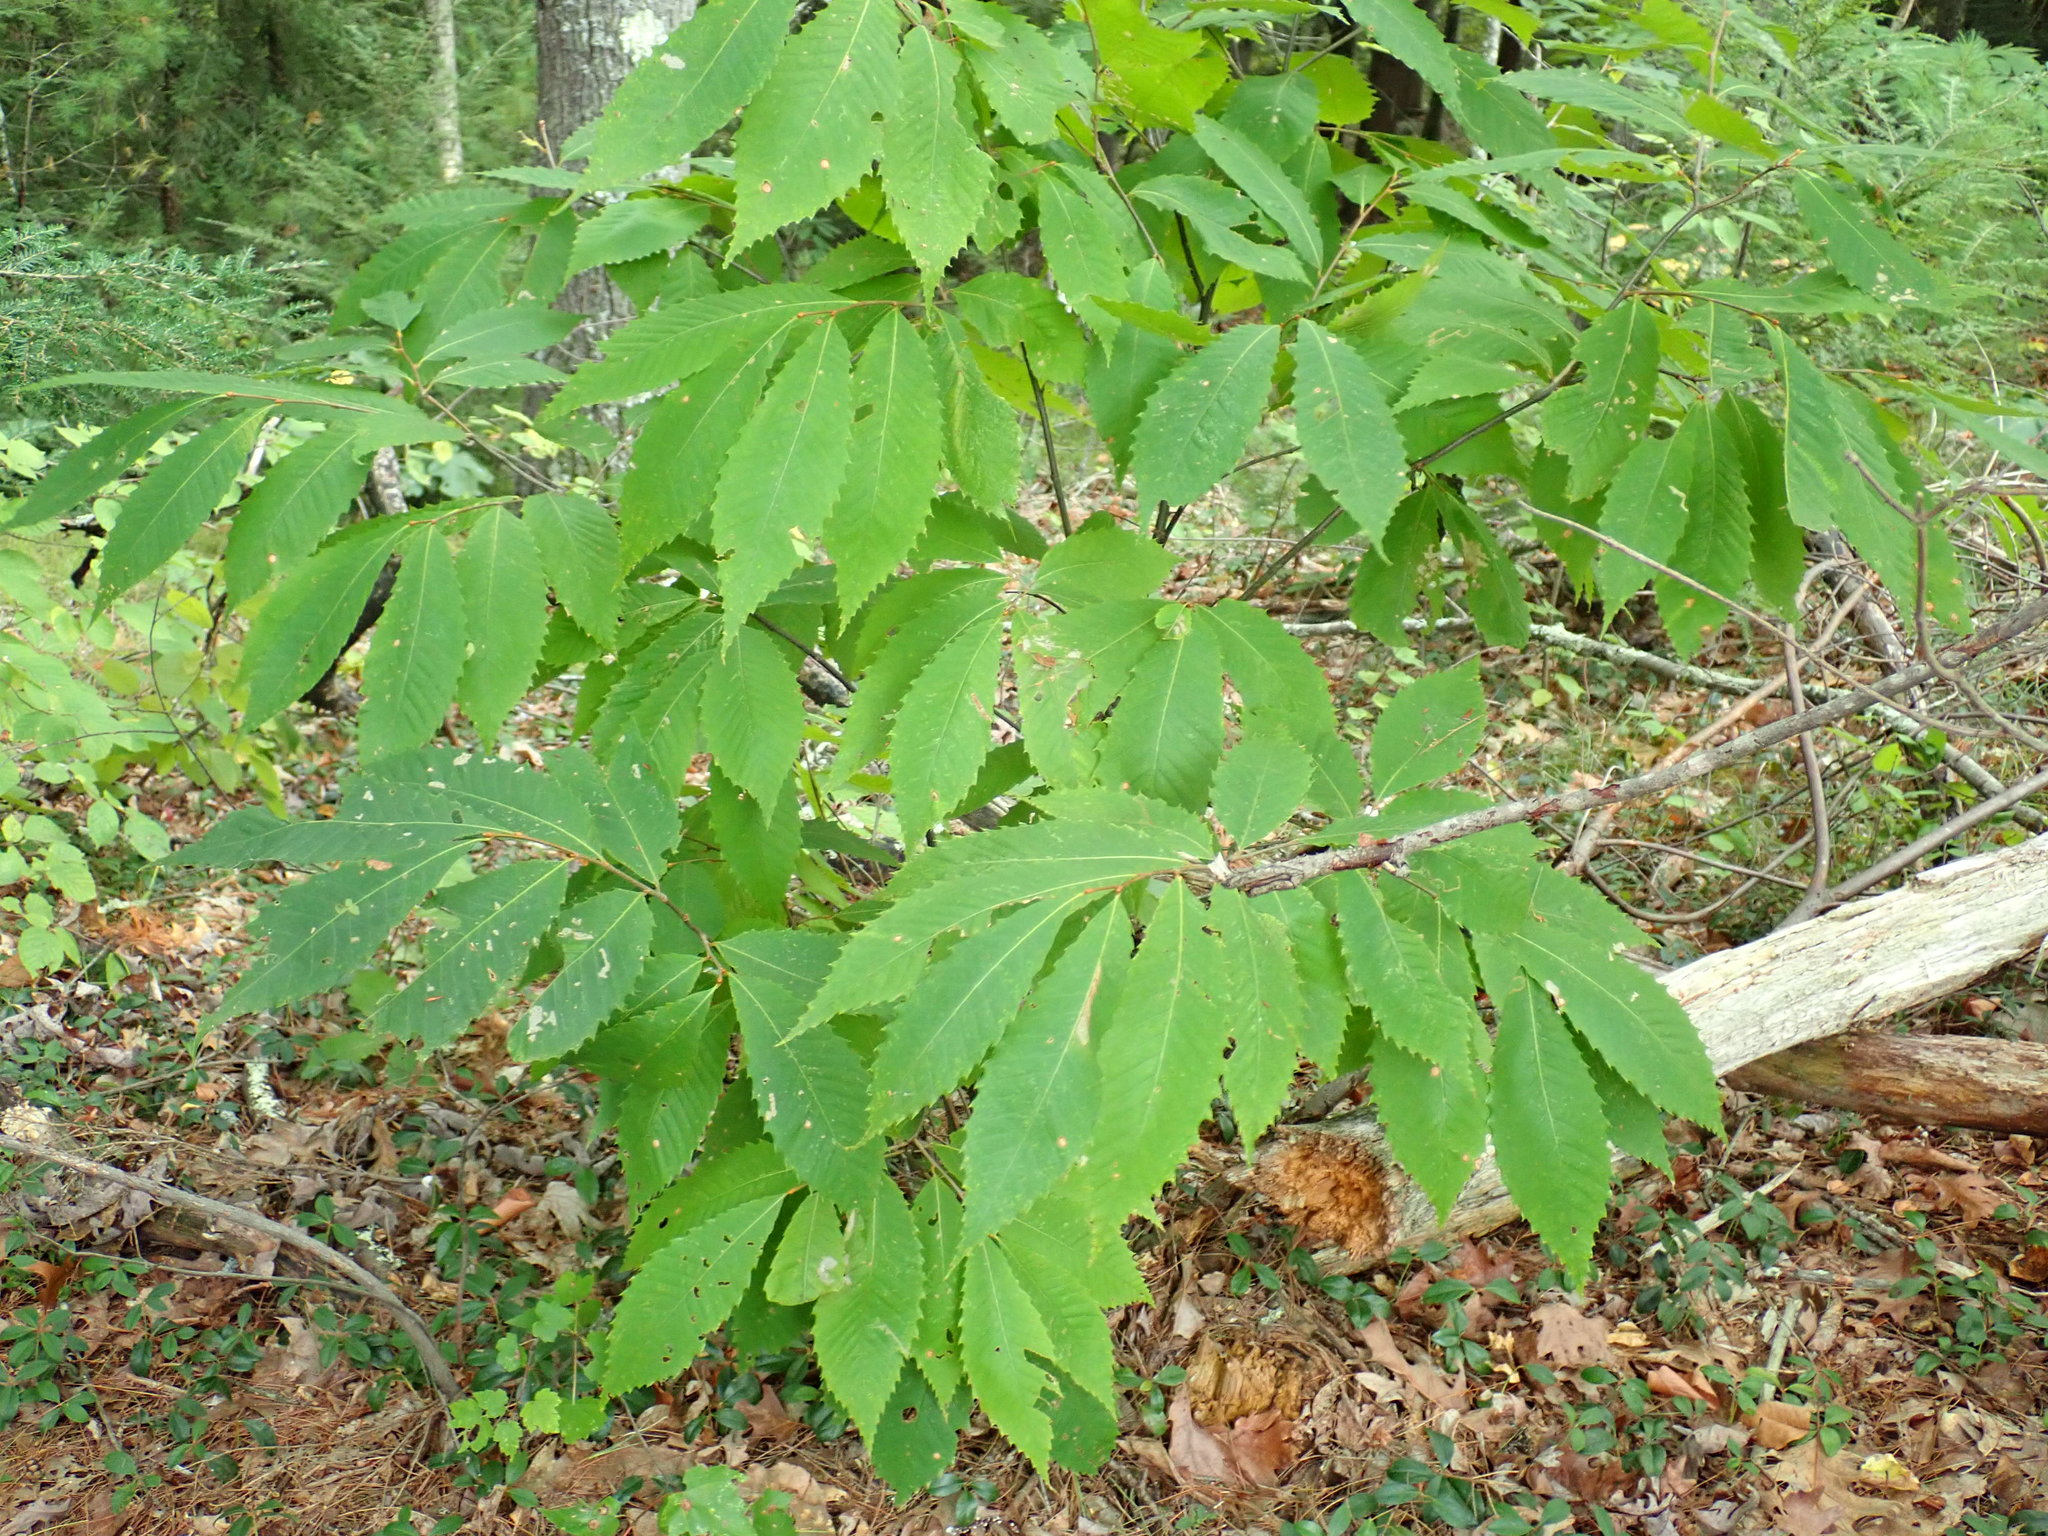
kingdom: Plantae
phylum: Tracheophyta
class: Magnoliopsida
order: Fagales
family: Fagaceae
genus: Castanea
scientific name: Castanea dentata
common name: American chestnut
